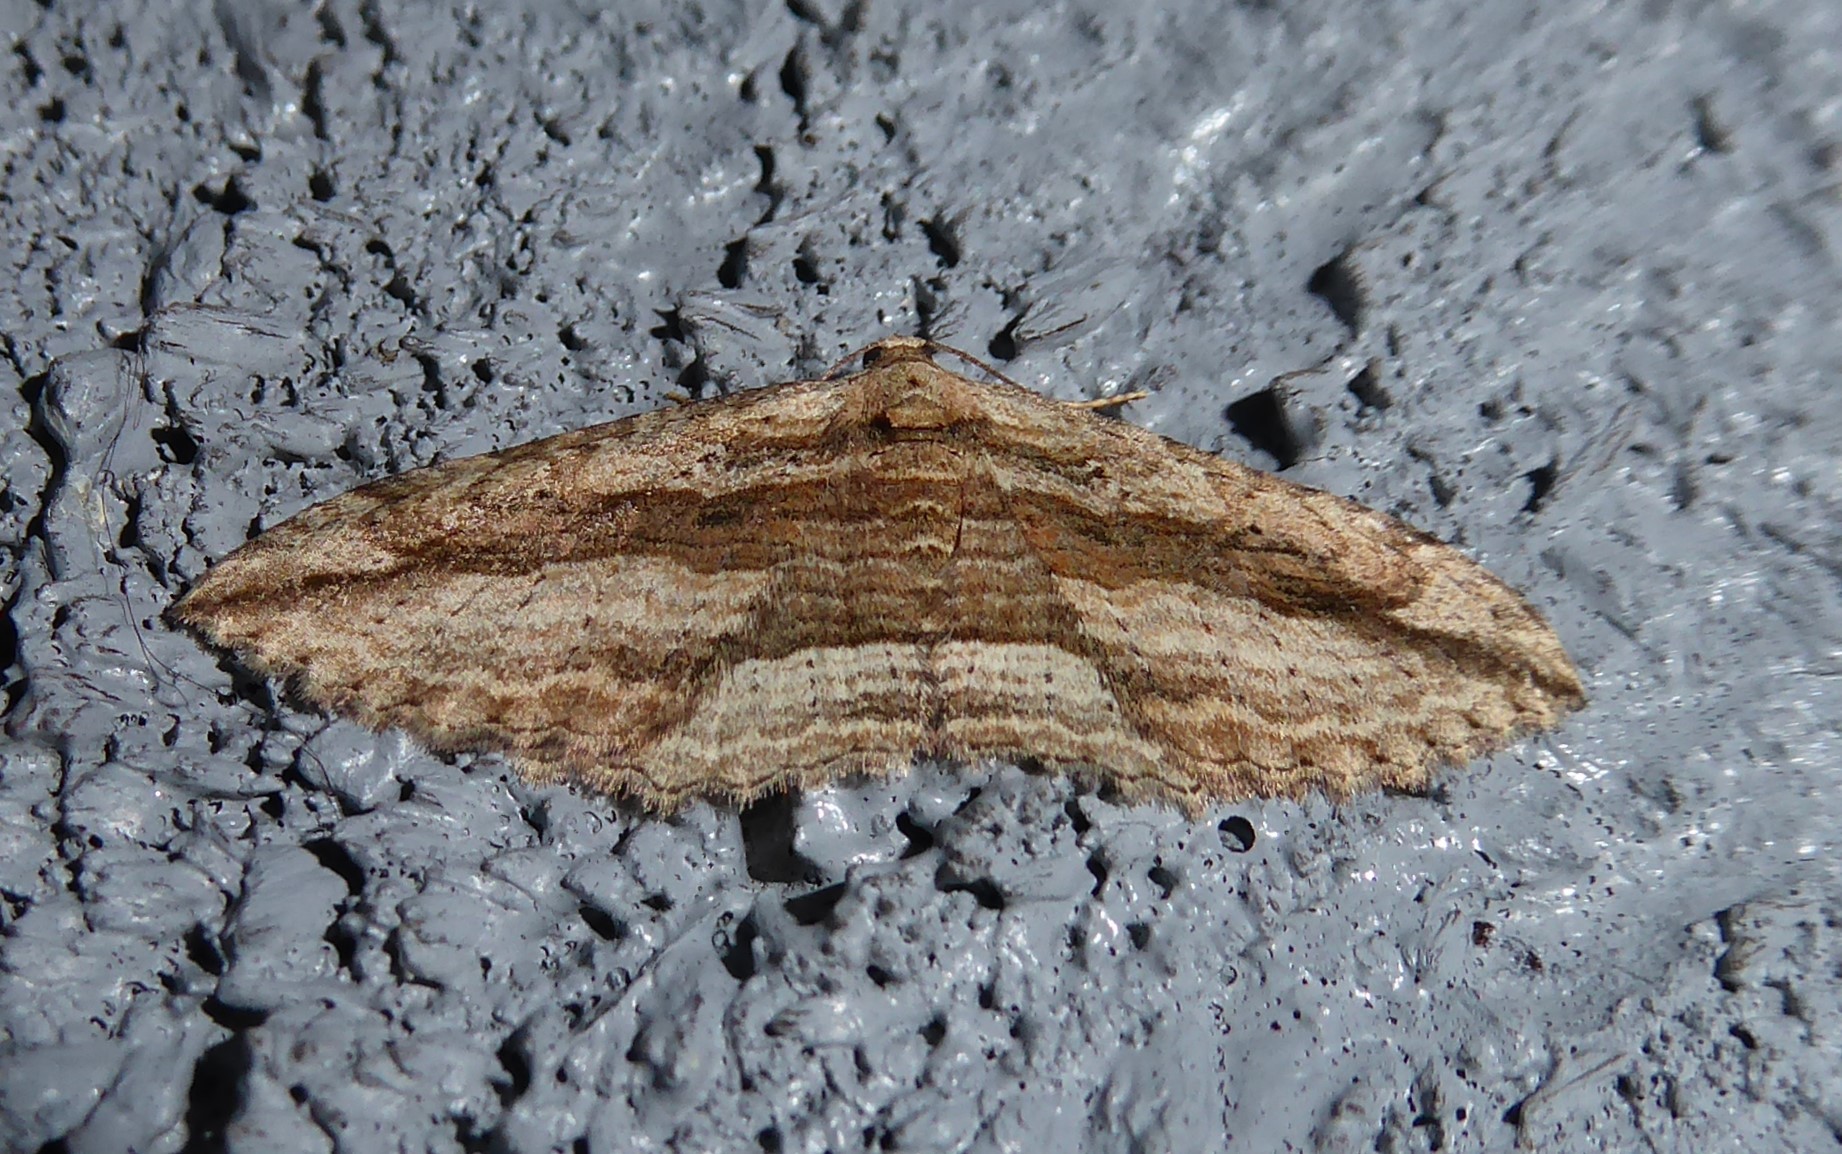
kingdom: Animalia
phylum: Arthropoda
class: Insecta
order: Lepidoptera
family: Geometridae
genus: Austrocidaria
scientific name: Austrocidaria gobiata
